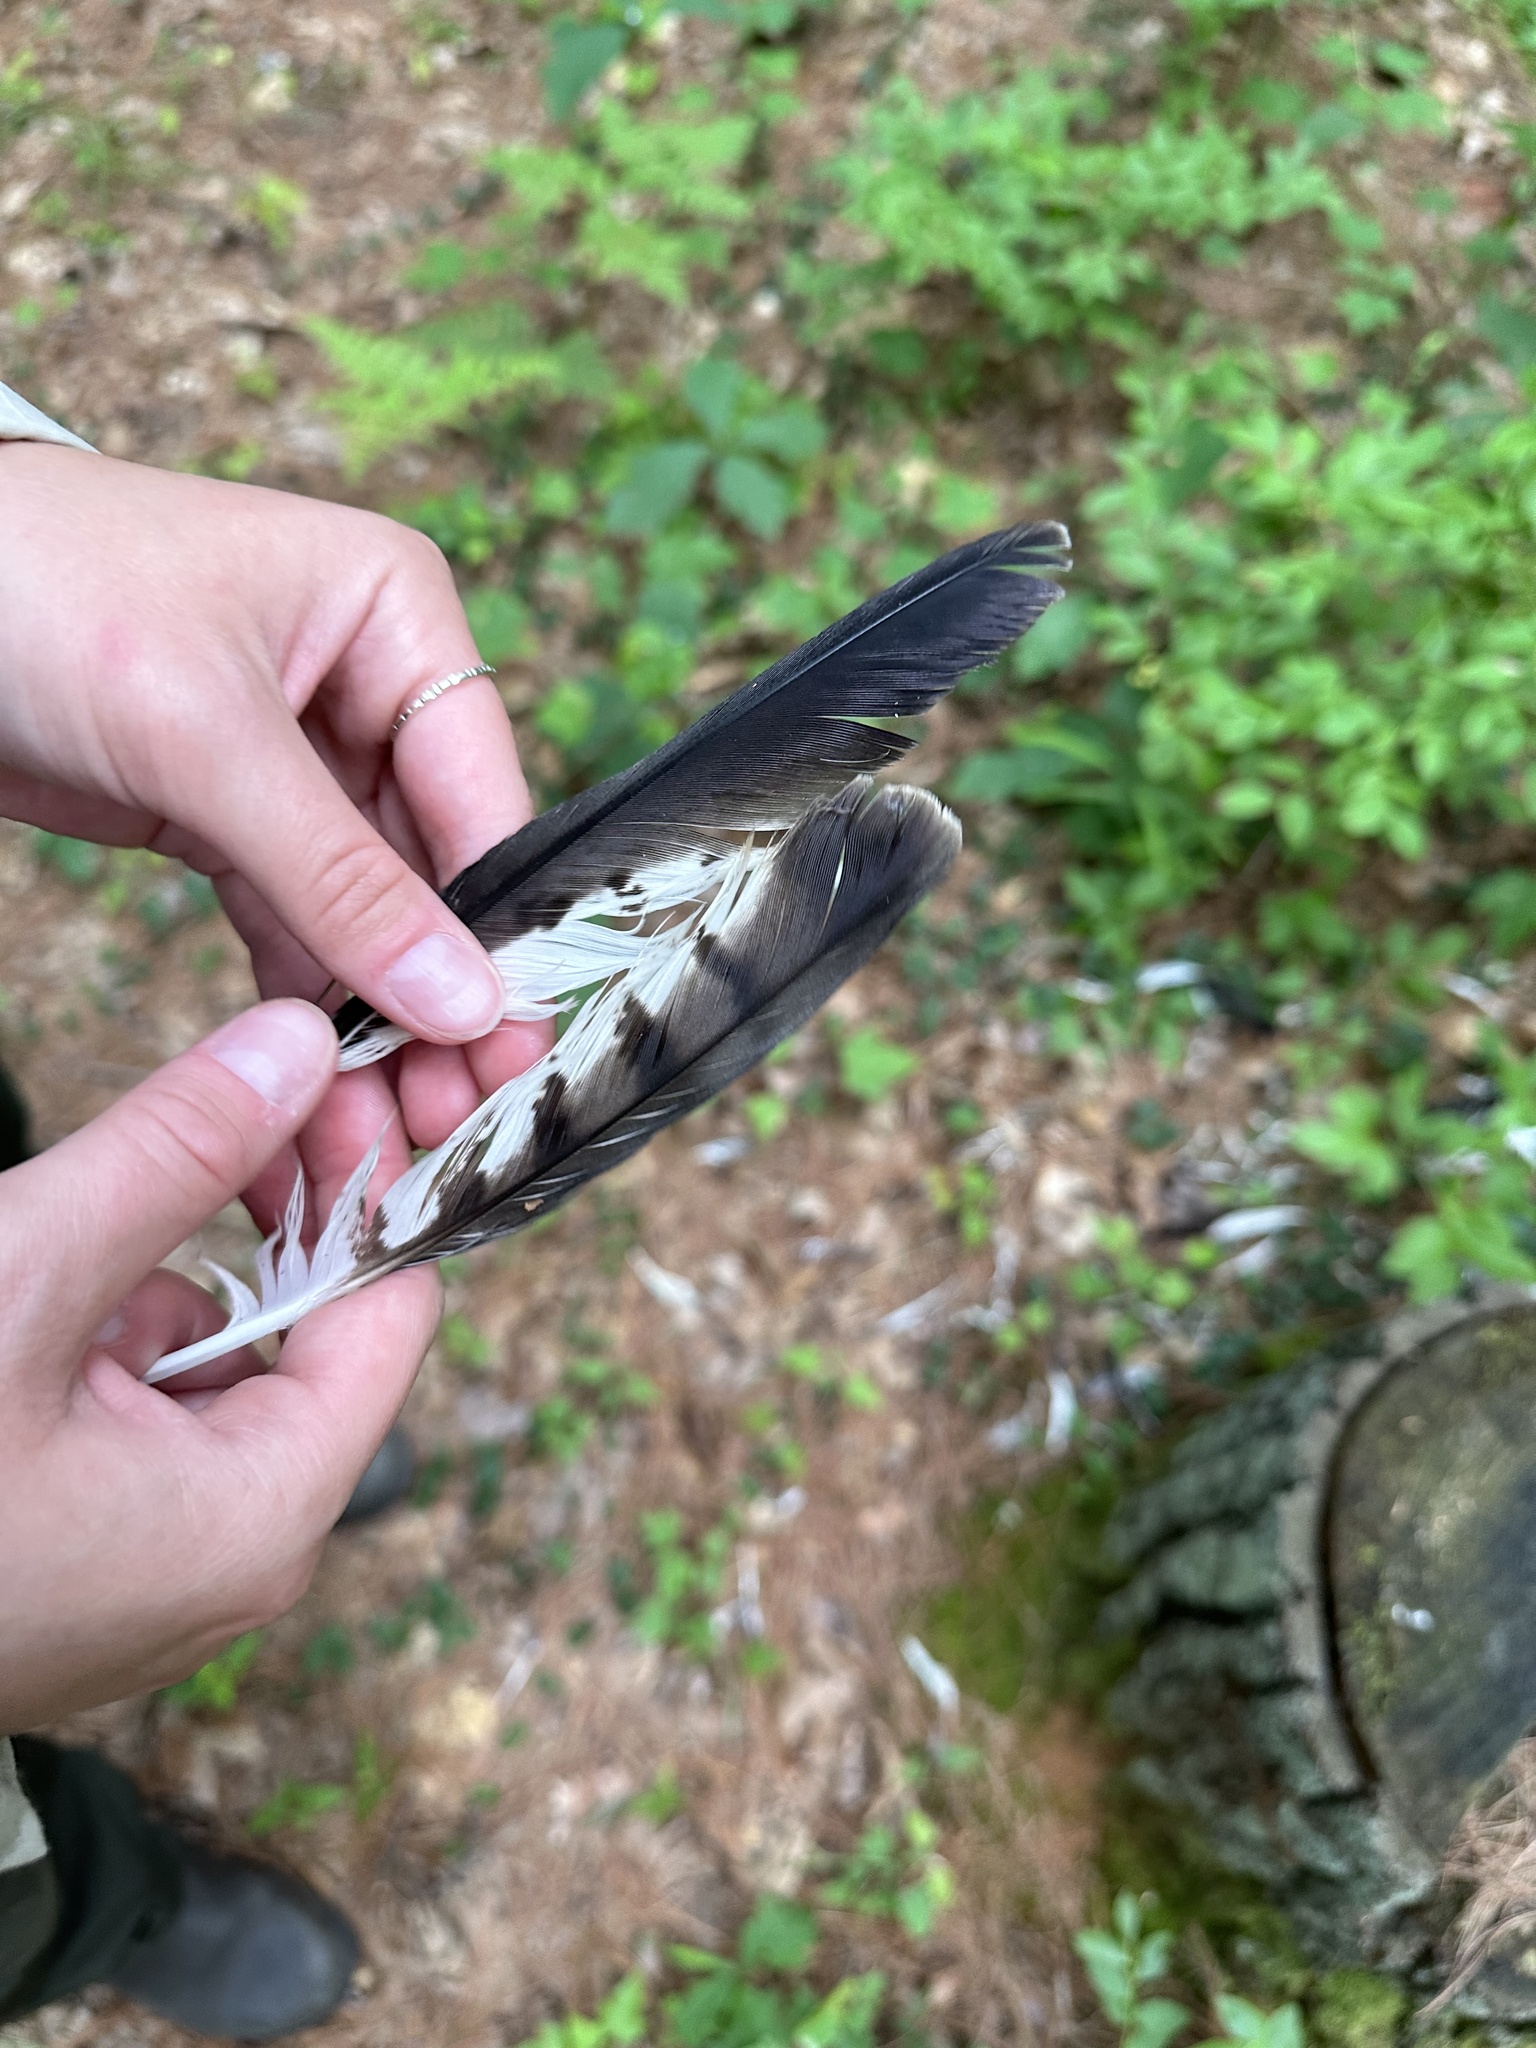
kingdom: Animalia
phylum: Chordata
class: Aves
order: Accipitriformes
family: Accipitridae
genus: Buteo
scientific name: Buteo platypterus
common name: Broad-winged hawk
